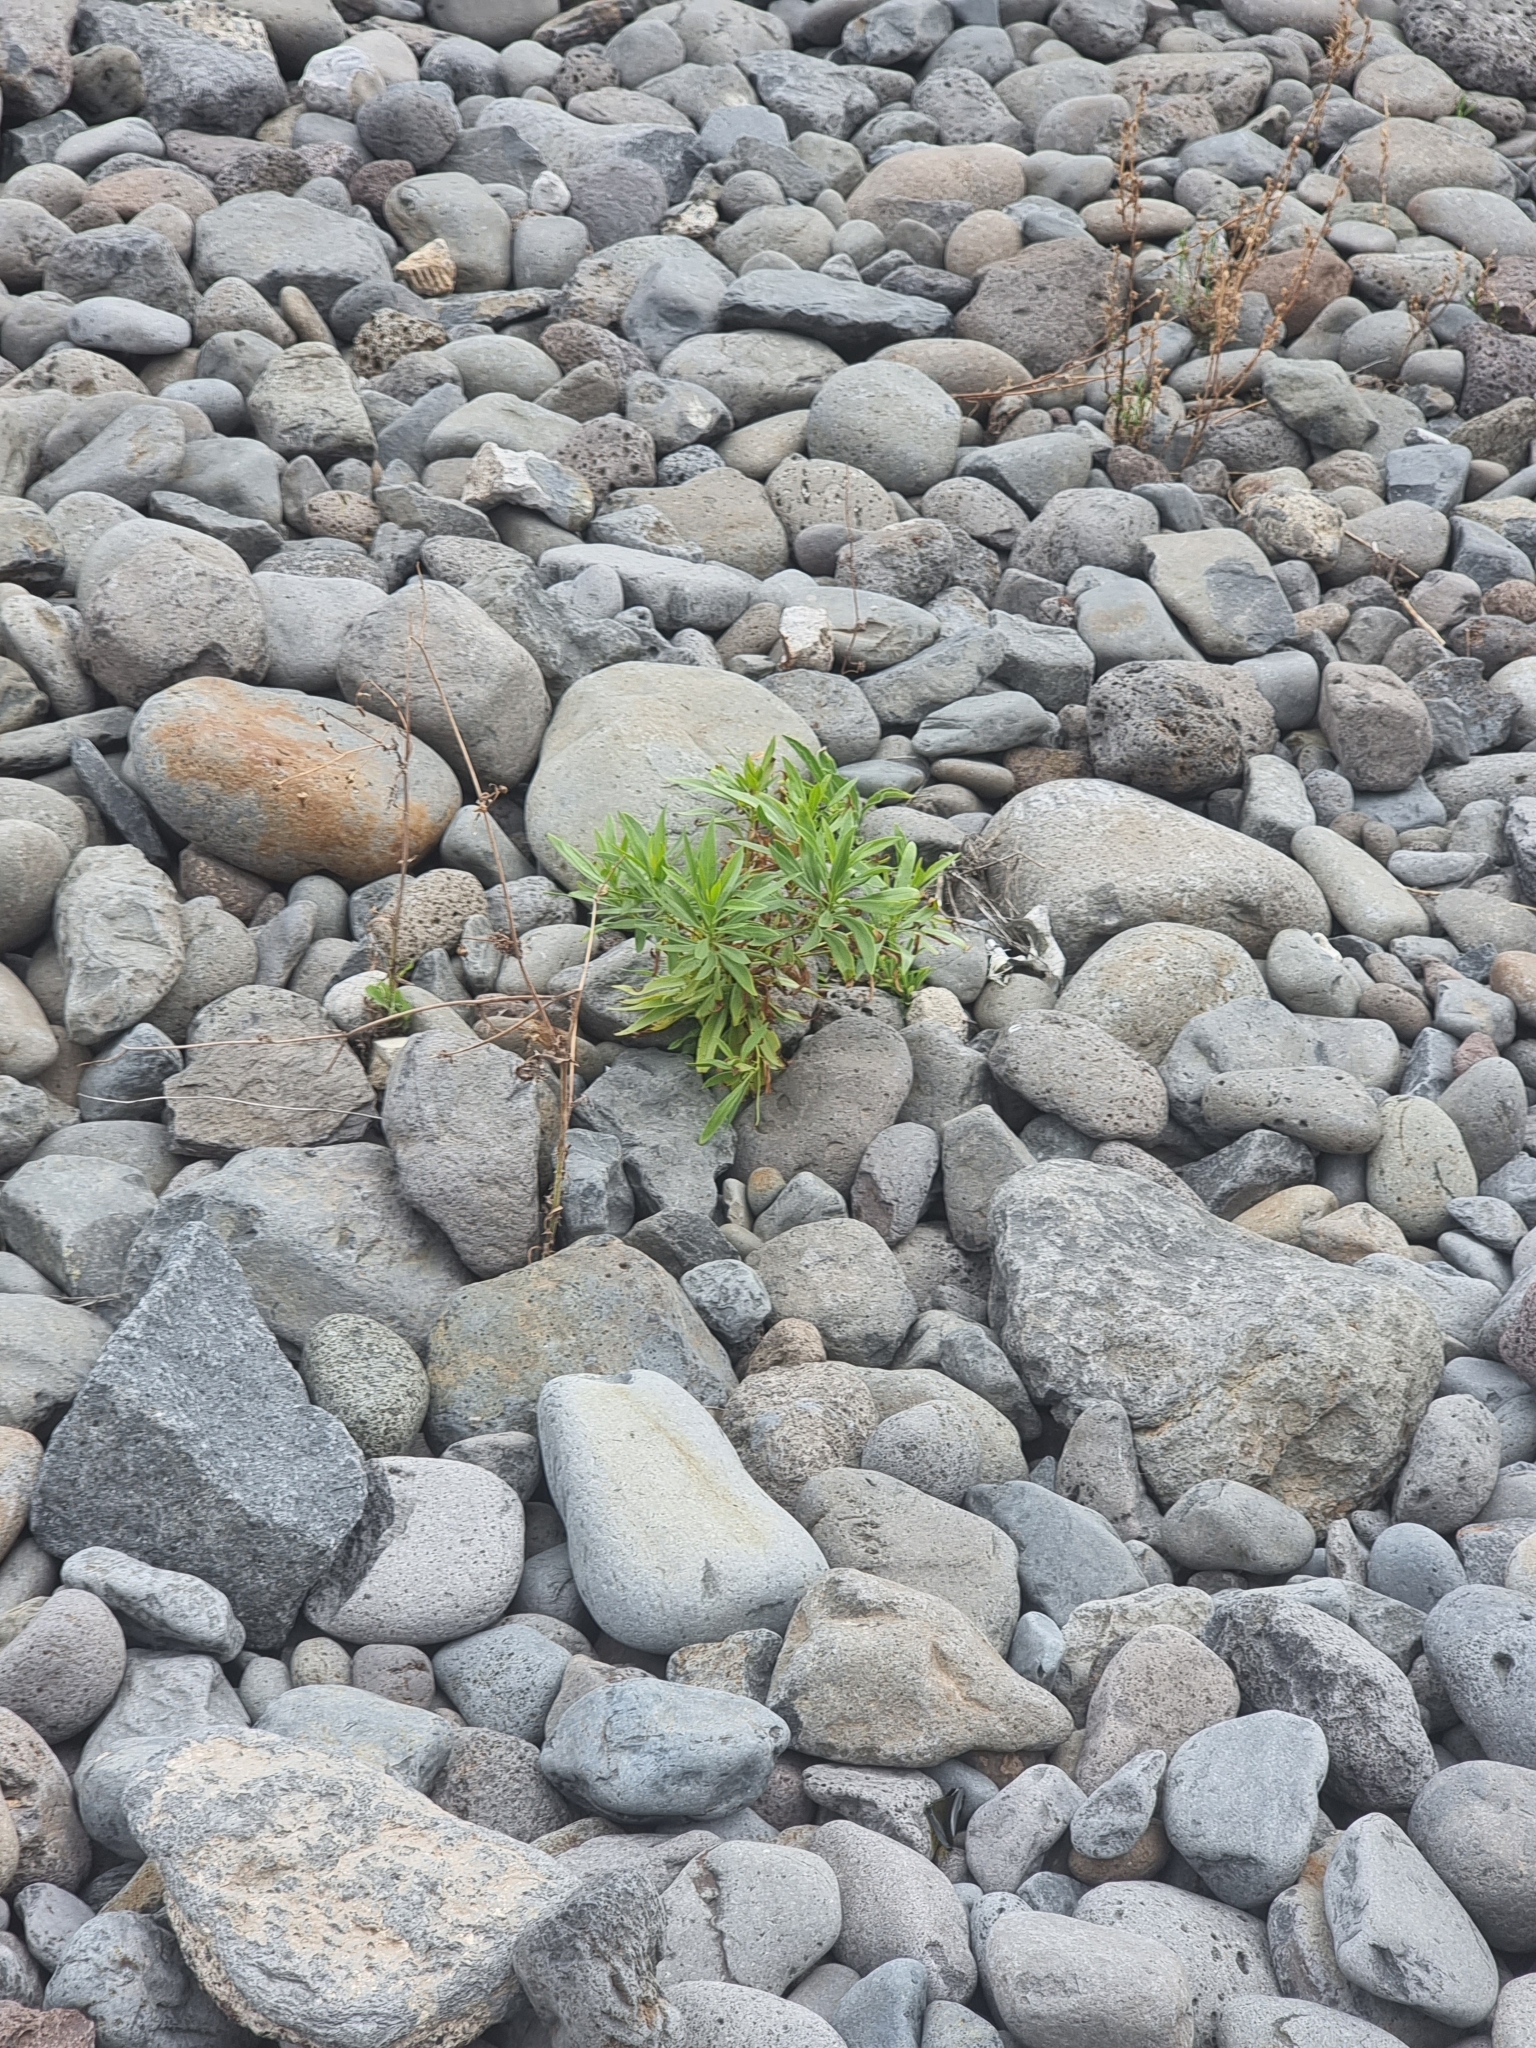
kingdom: Plantae
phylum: Tracheophyta
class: Magnoliopsida
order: Lamiales
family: Plantaginaceae
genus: Globularia
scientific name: Globularia salicina
